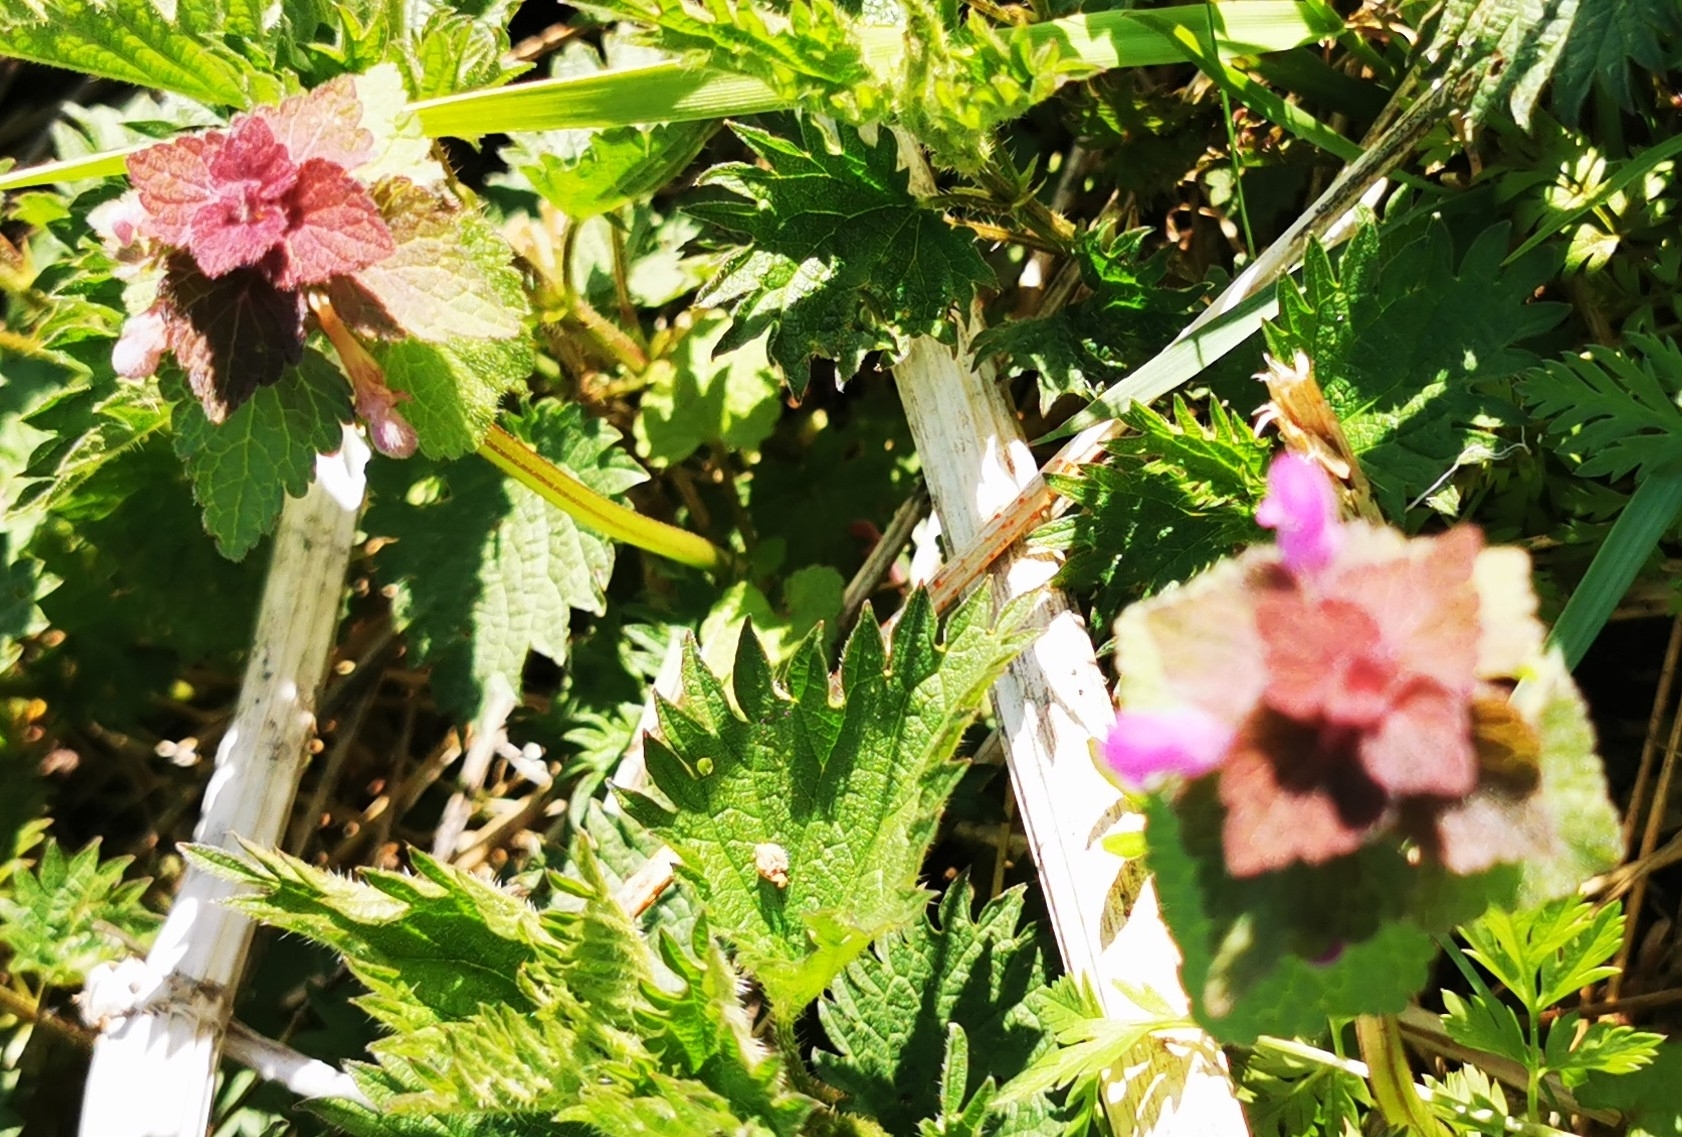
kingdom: Plantae
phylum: Tracheophyta
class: Magnoliopsida
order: Lamiales
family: Lamiaceae
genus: Lamium
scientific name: Lamium purpureum
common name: Red dead-nettle
